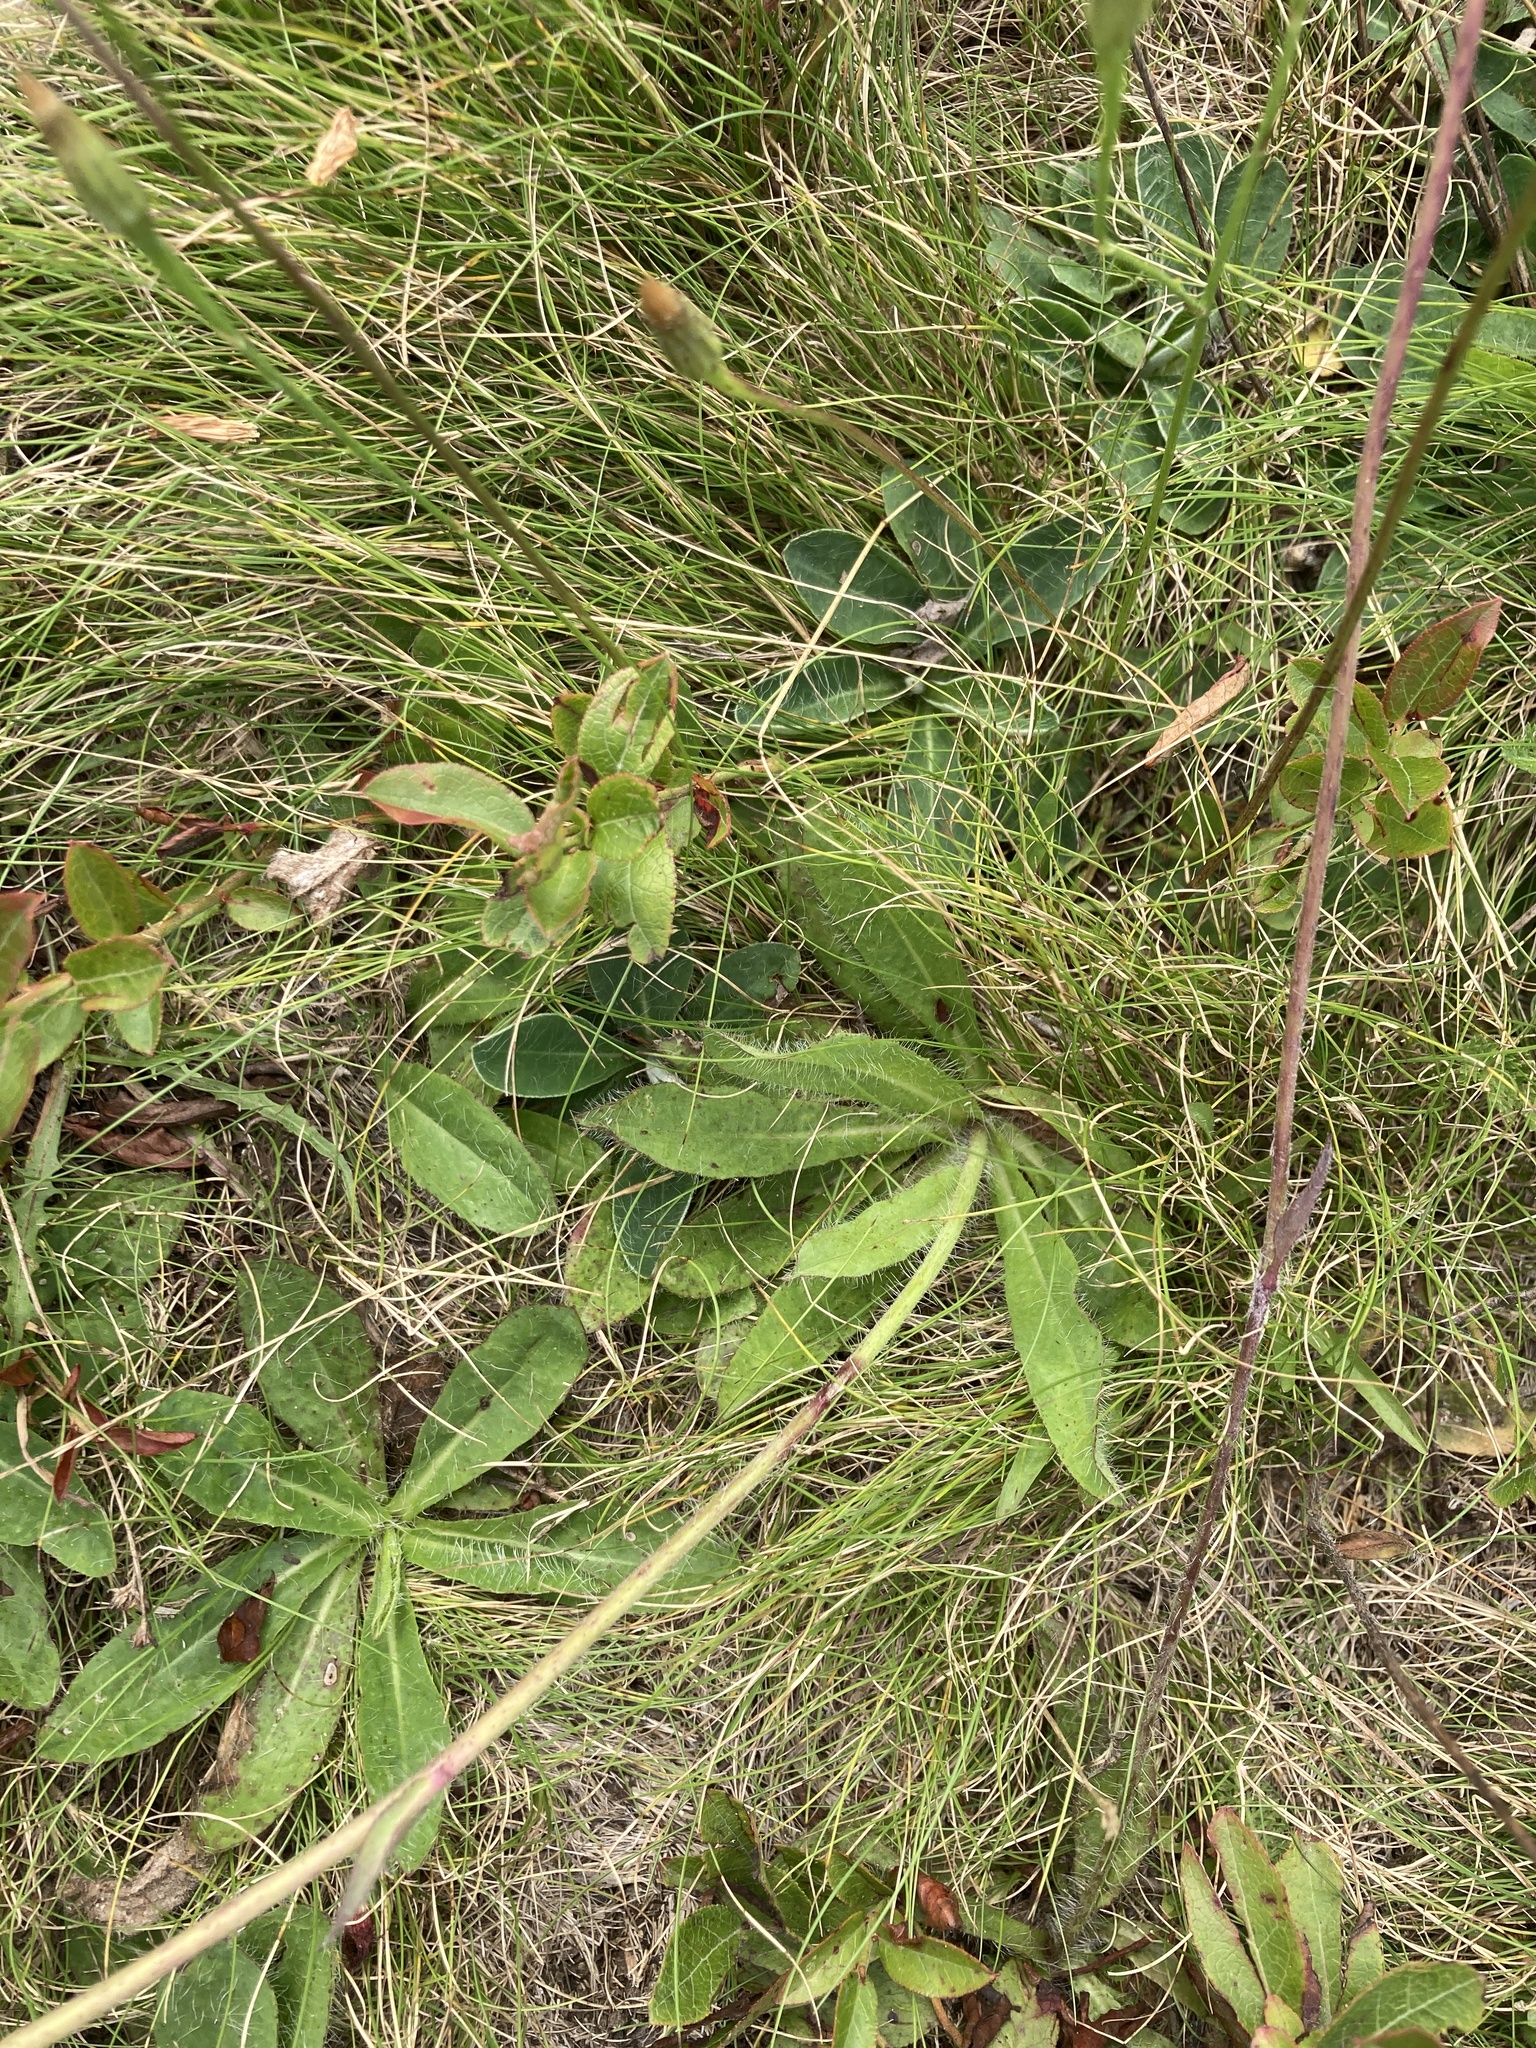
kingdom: Plantae
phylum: Tracheophyta
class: Magnoliopsida
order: Asterales
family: Asteraceae
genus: Pilosella
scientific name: Pilosella aurantiaca
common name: Fox-and-cubs
